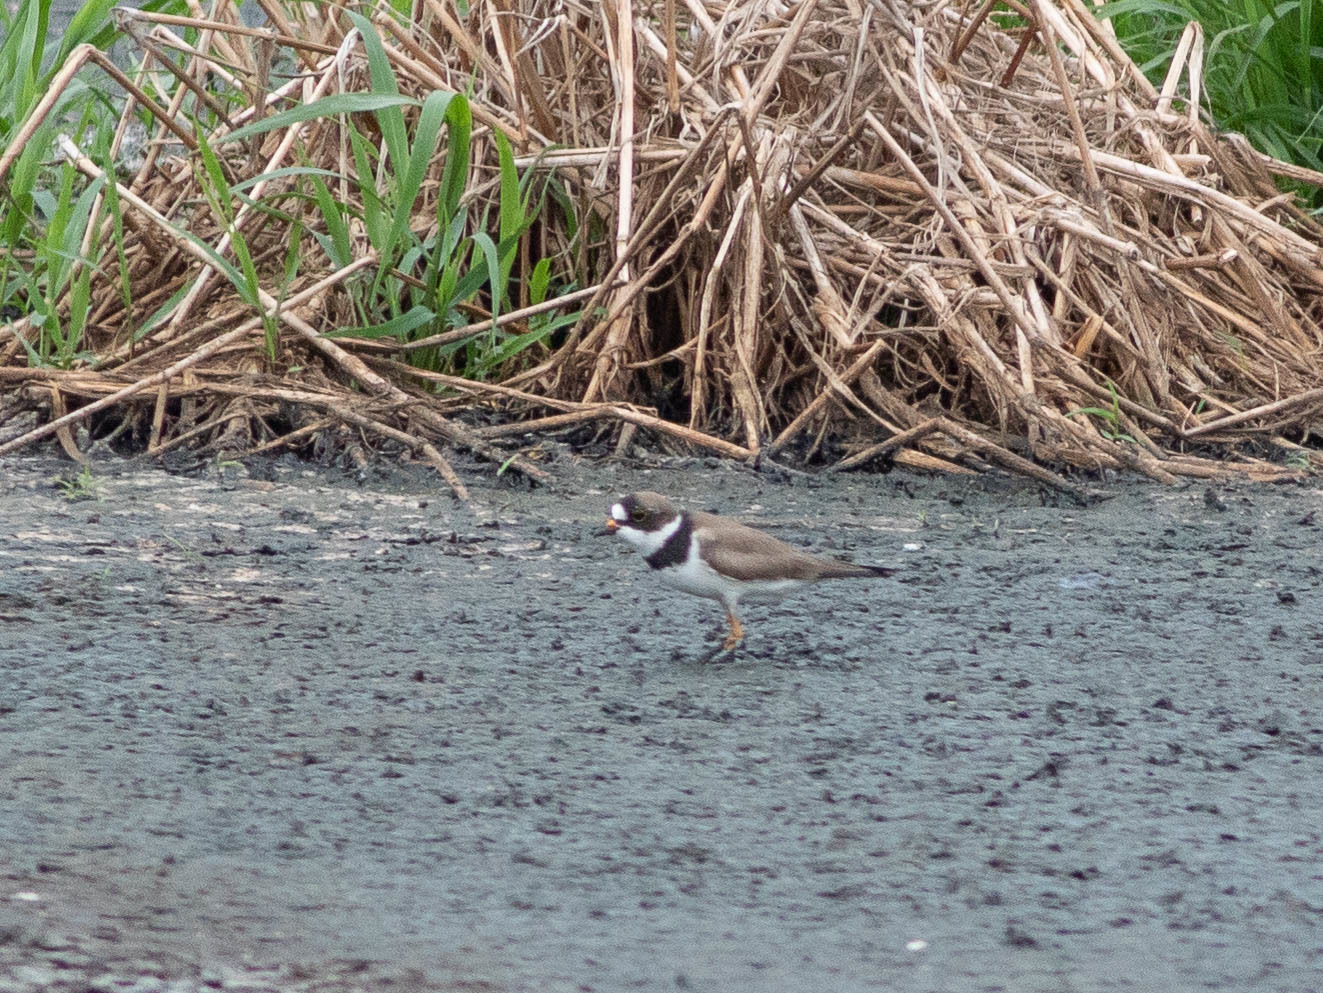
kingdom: Animalia
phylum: Chordata
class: Aves
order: Charadriiformes
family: Charadriidae
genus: Charadrius
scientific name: Charadrius semipalmatus
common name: Semipalmated plover
